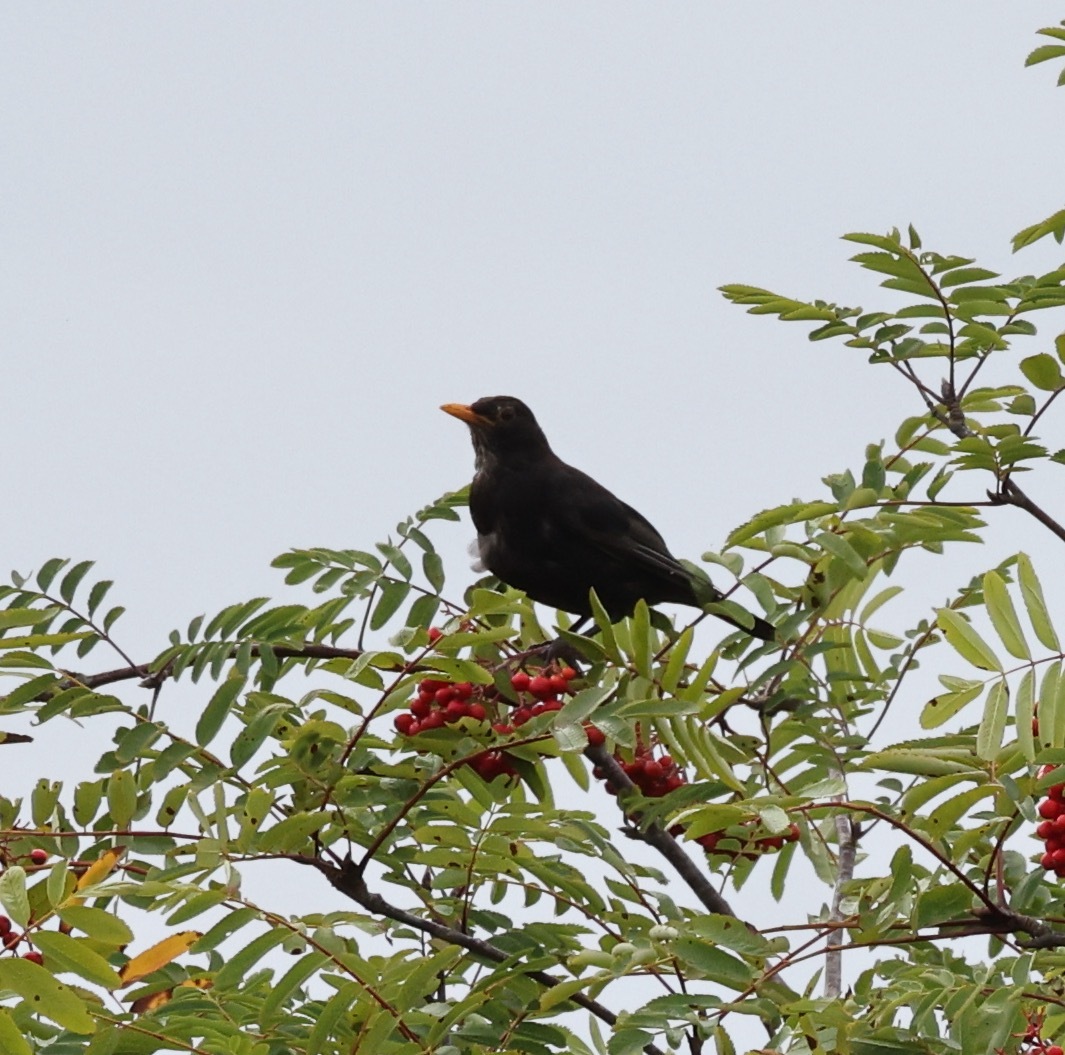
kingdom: Animalia
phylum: Chordata
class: Aves
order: Passeriformes
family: Turdidae
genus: Turdus
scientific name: Turdus merula
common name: Common blackbird
